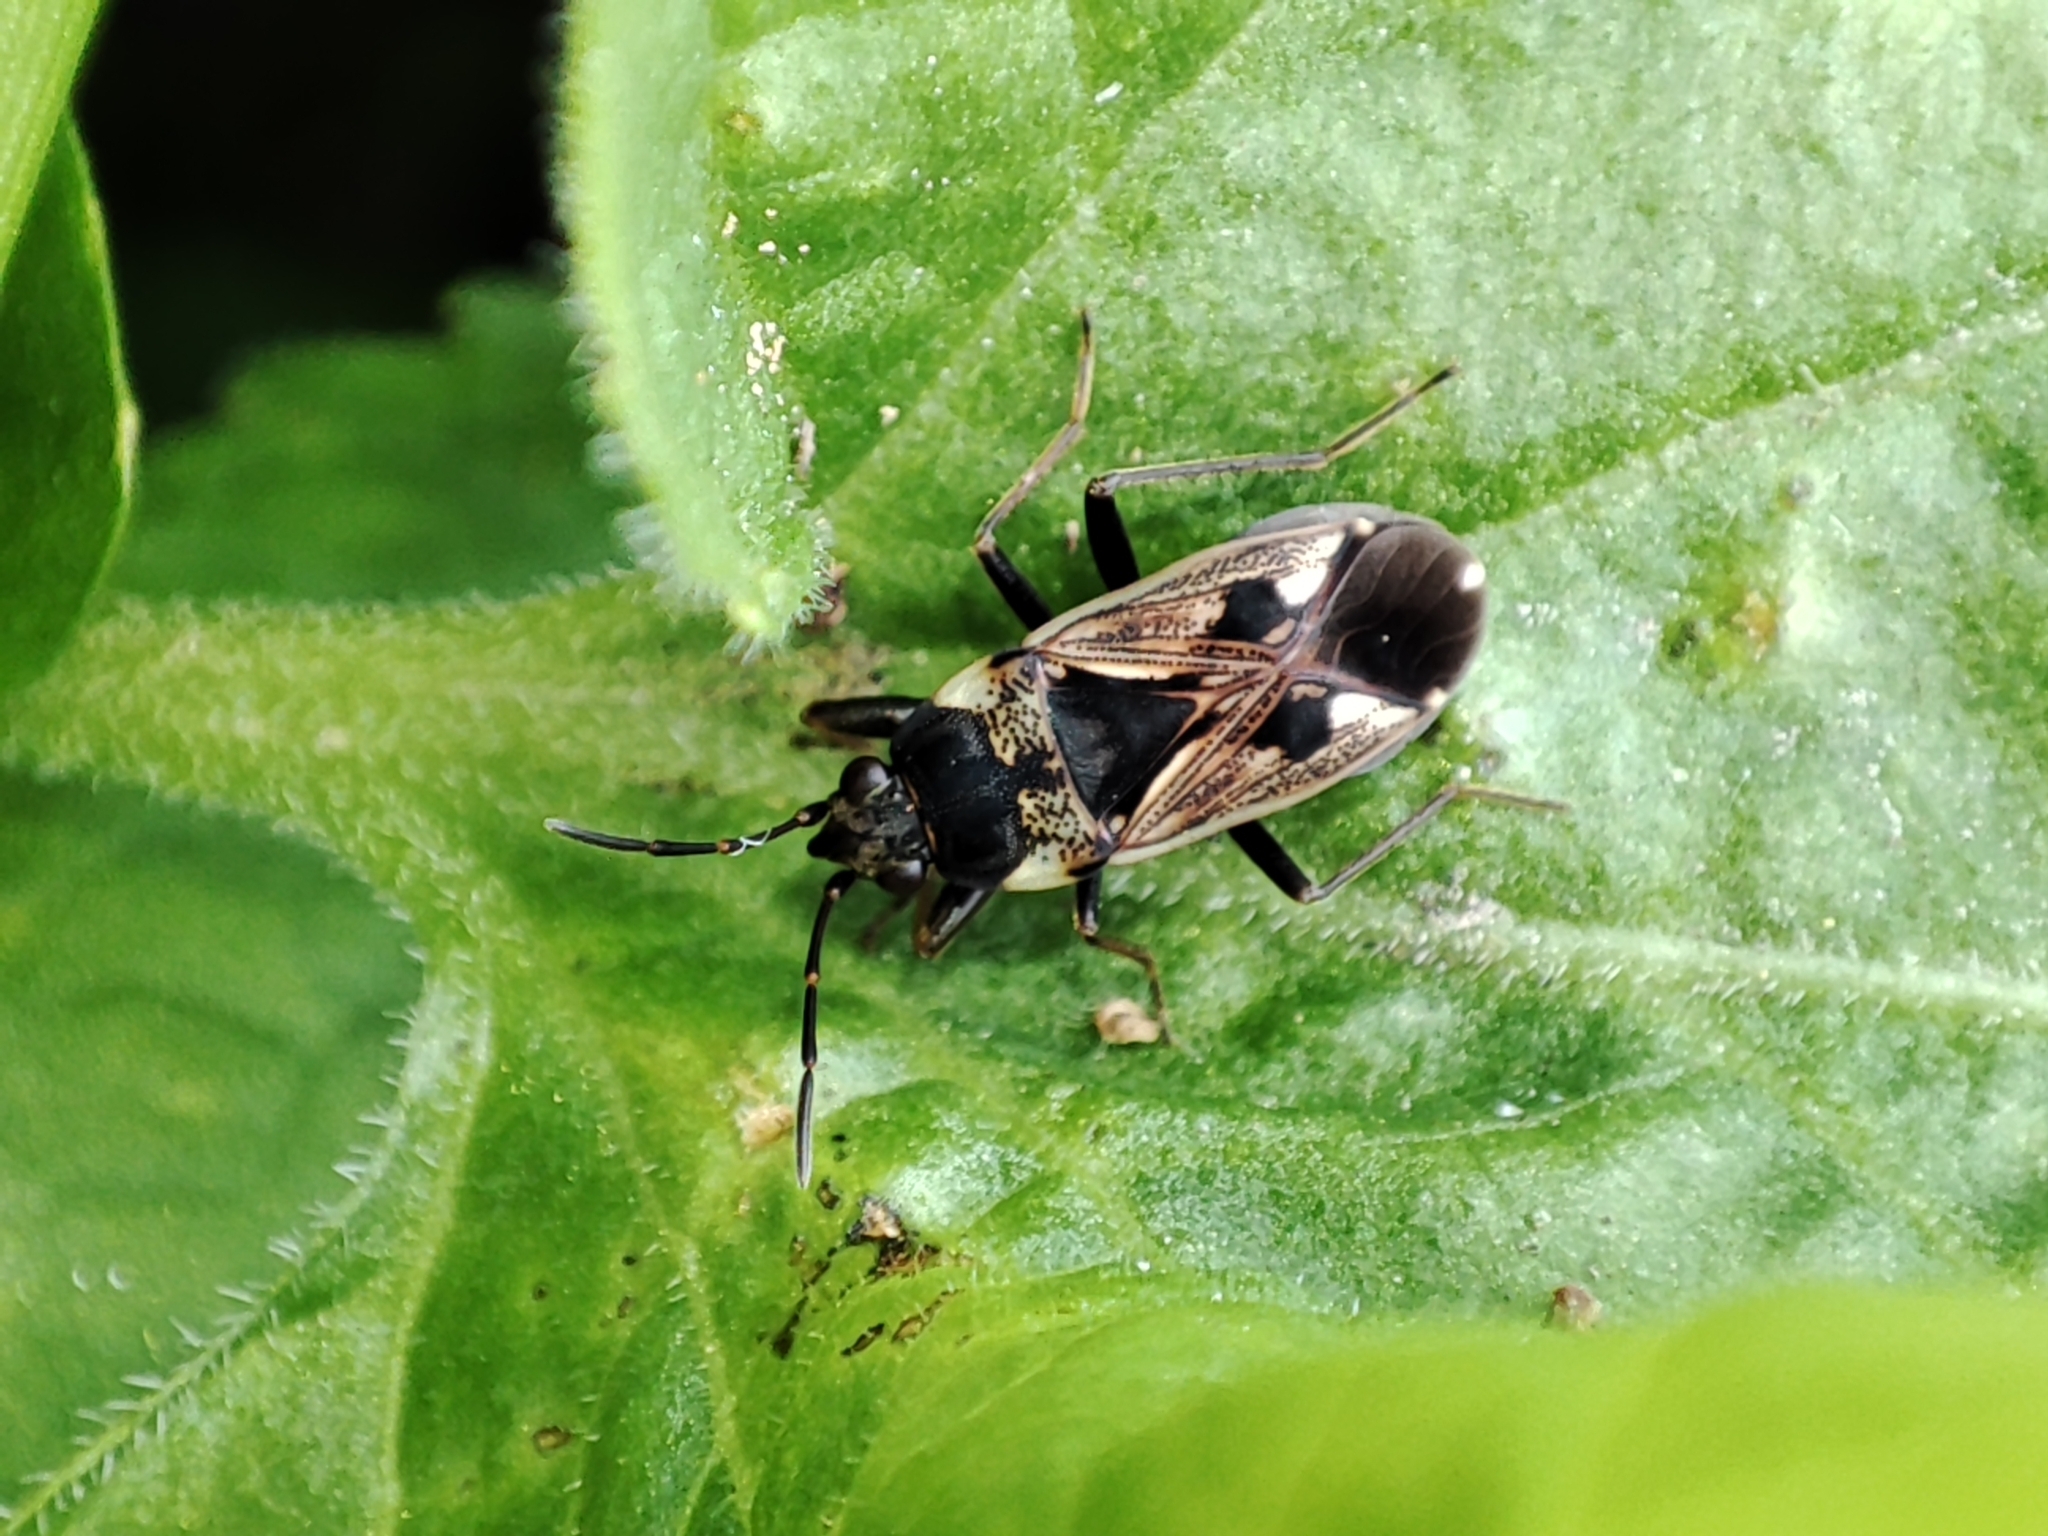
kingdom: Animalia
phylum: Arthropoda
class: Insecta
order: Hemiptera
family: Rhyparochromidae
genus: Rhyparochromus
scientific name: Rhyparochromus vulgaris
